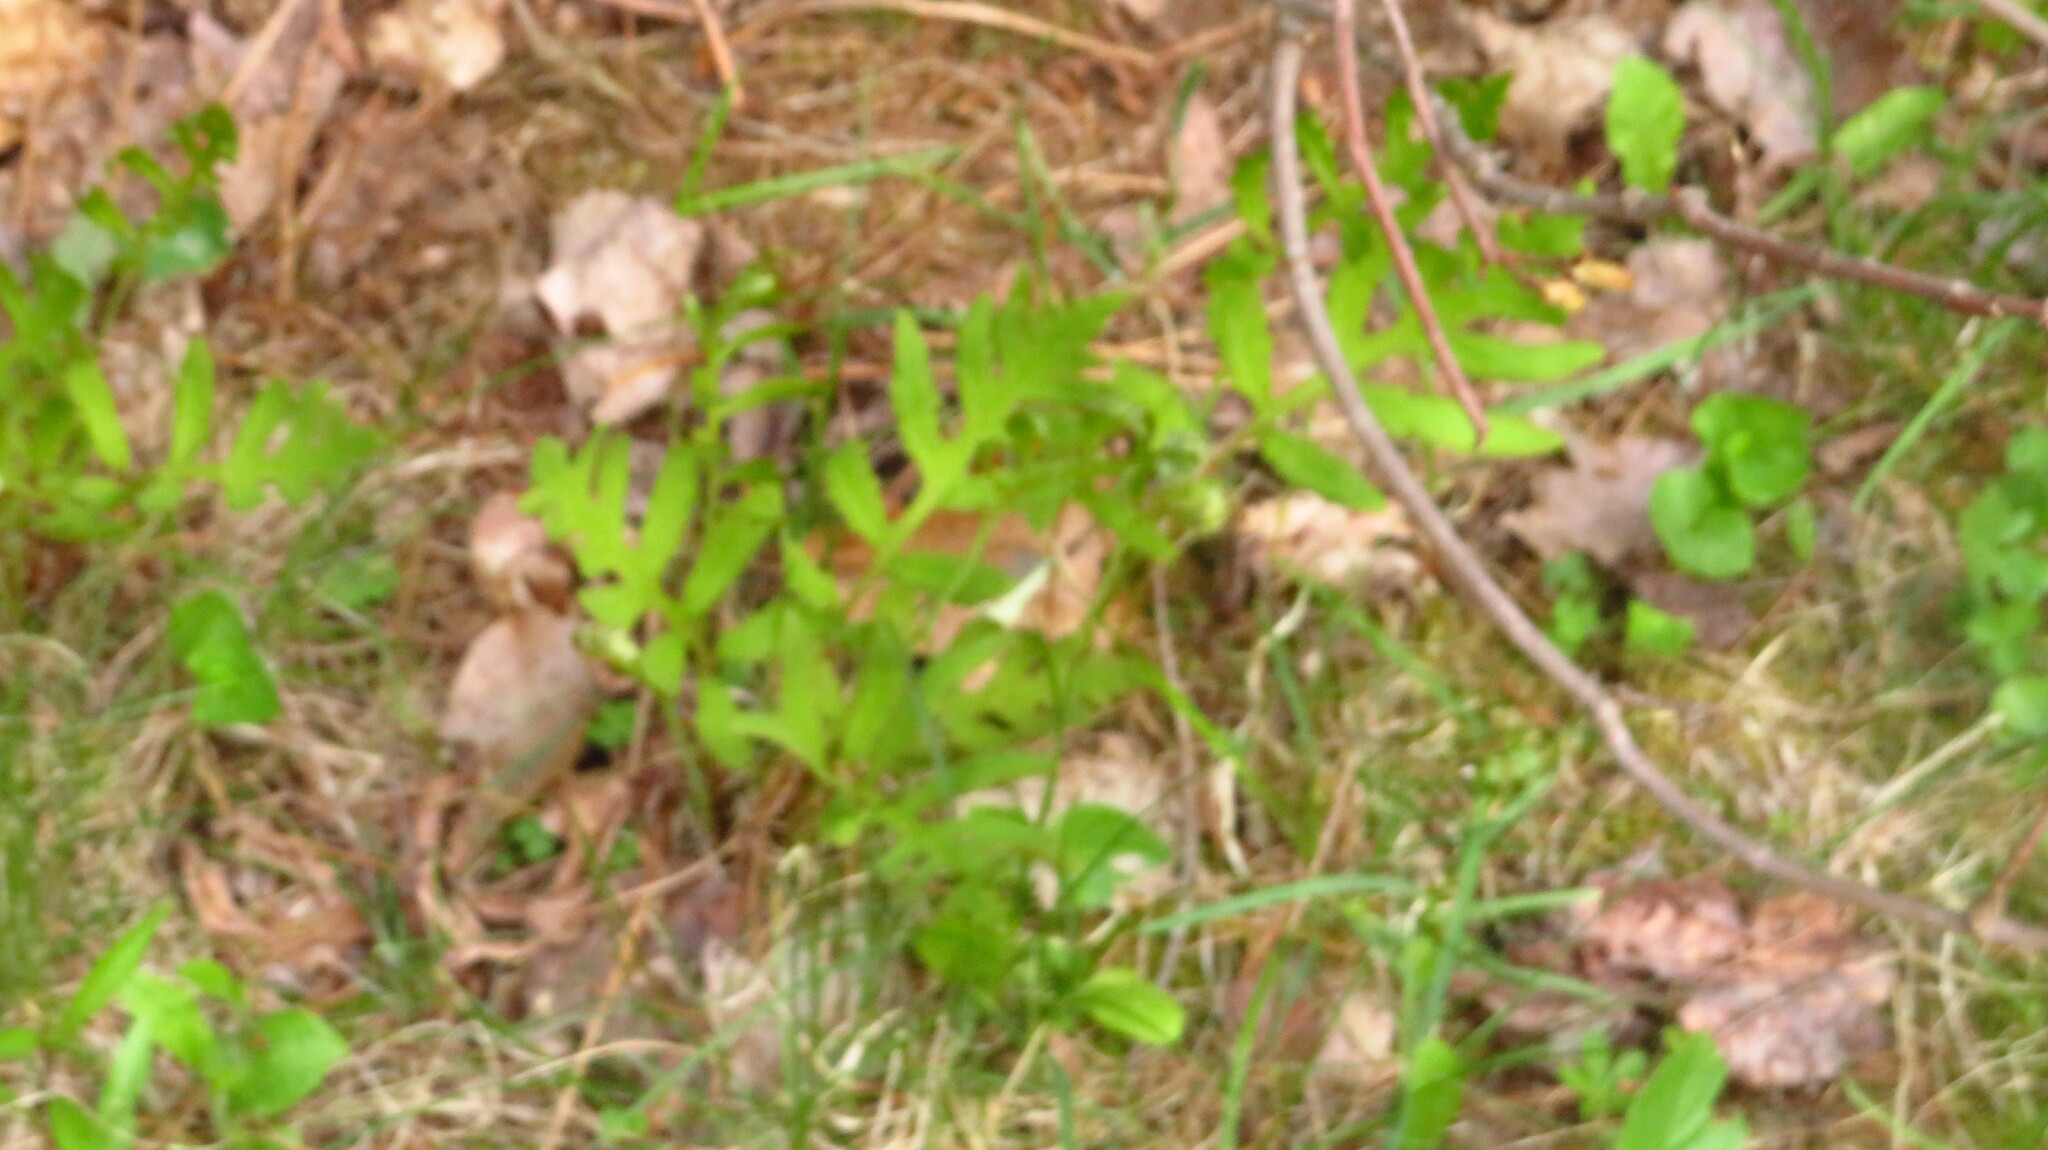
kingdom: Plantae
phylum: Tracheophyta
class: Polypodiopsida
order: Polypodiales
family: Onocleaceae
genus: Onoclea
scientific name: Onoclea sensibilis
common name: Sensitive fern
